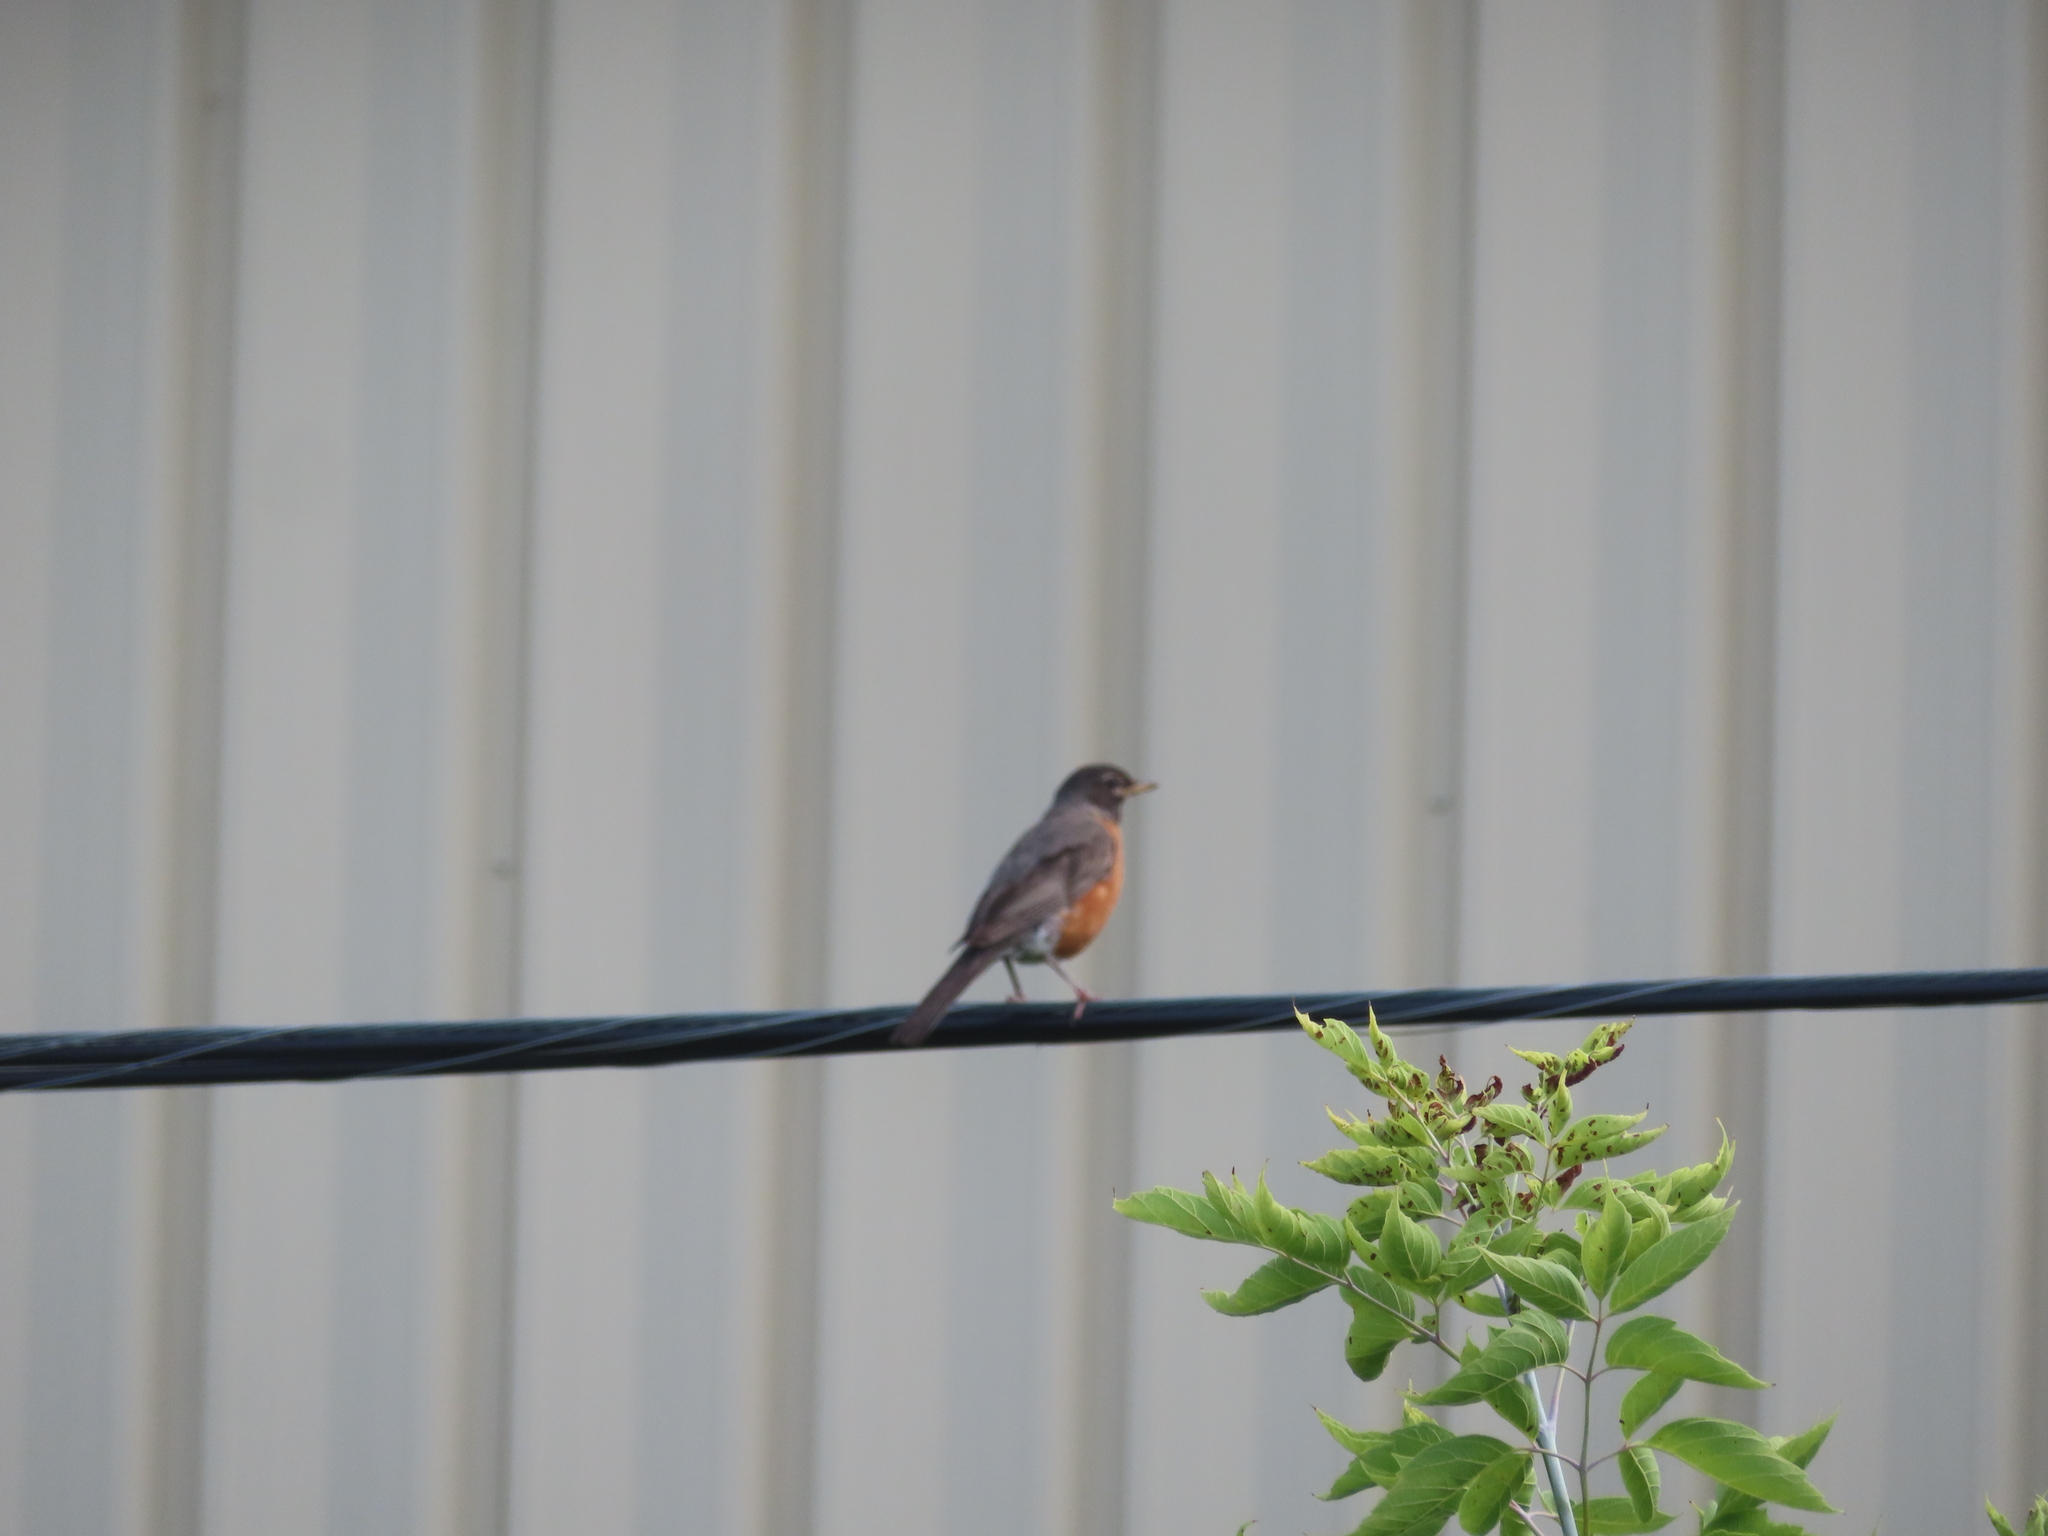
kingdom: Animalia
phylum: Chordata
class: Aves
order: Passeriformes
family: Turdidae
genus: Turdus
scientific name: Turdus migratorius
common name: American robin
